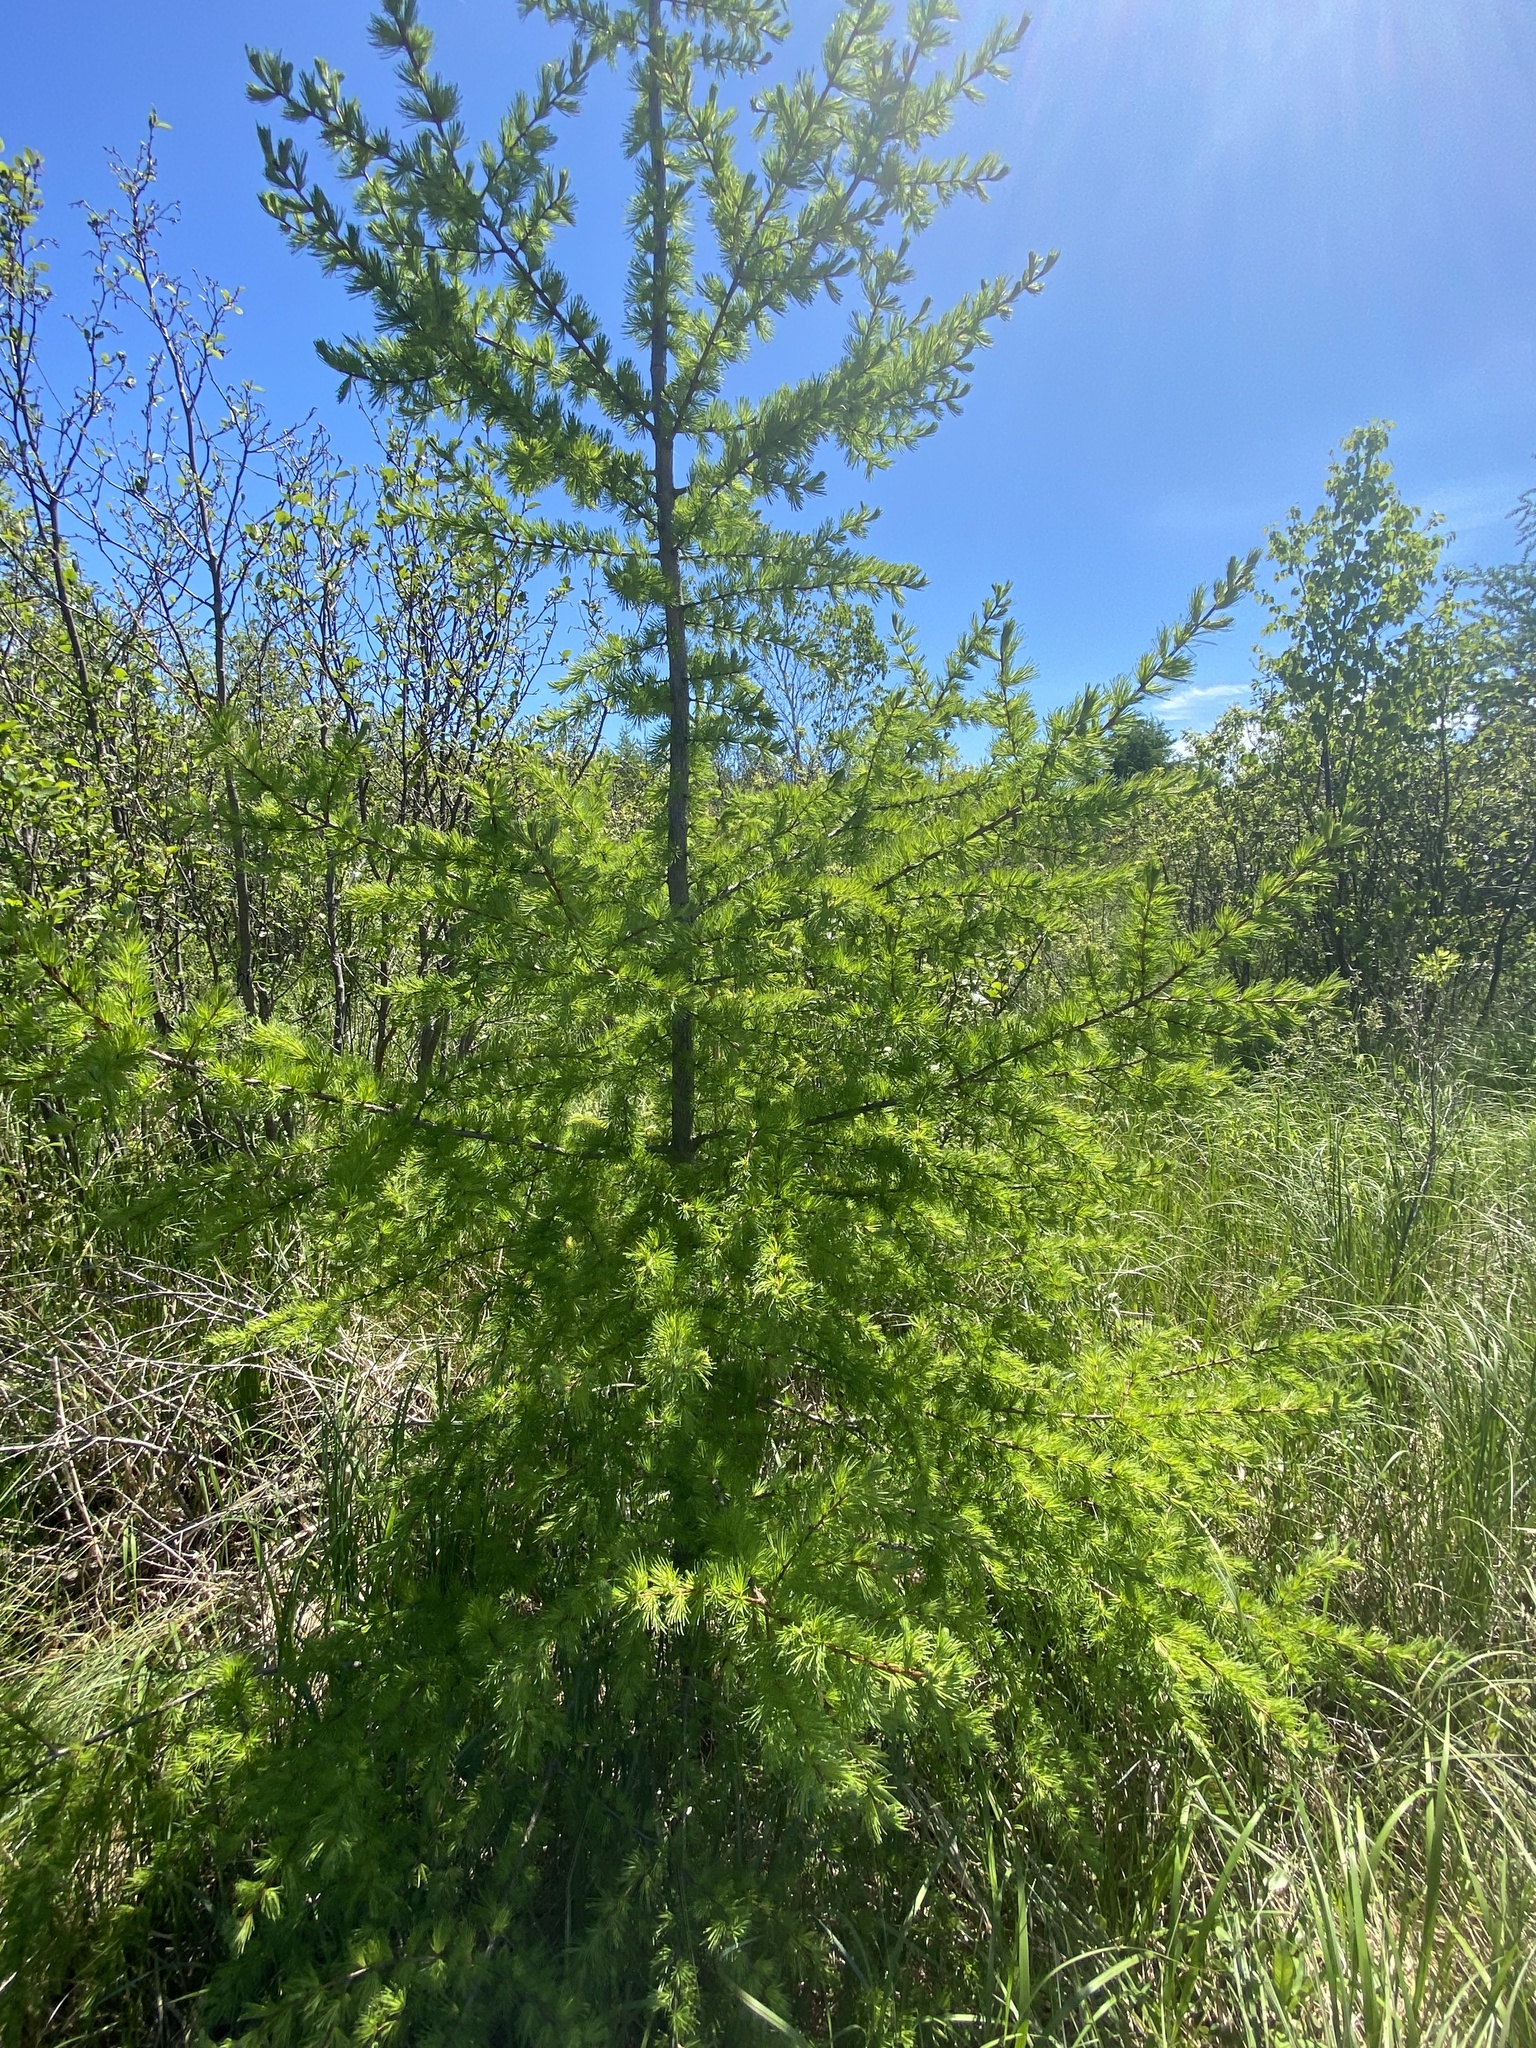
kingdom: Plantae
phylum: Tracheophyta
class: Pinopsida
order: Pinales
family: Pinaceae
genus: Larix
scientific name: Larix laricina
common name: American larch
